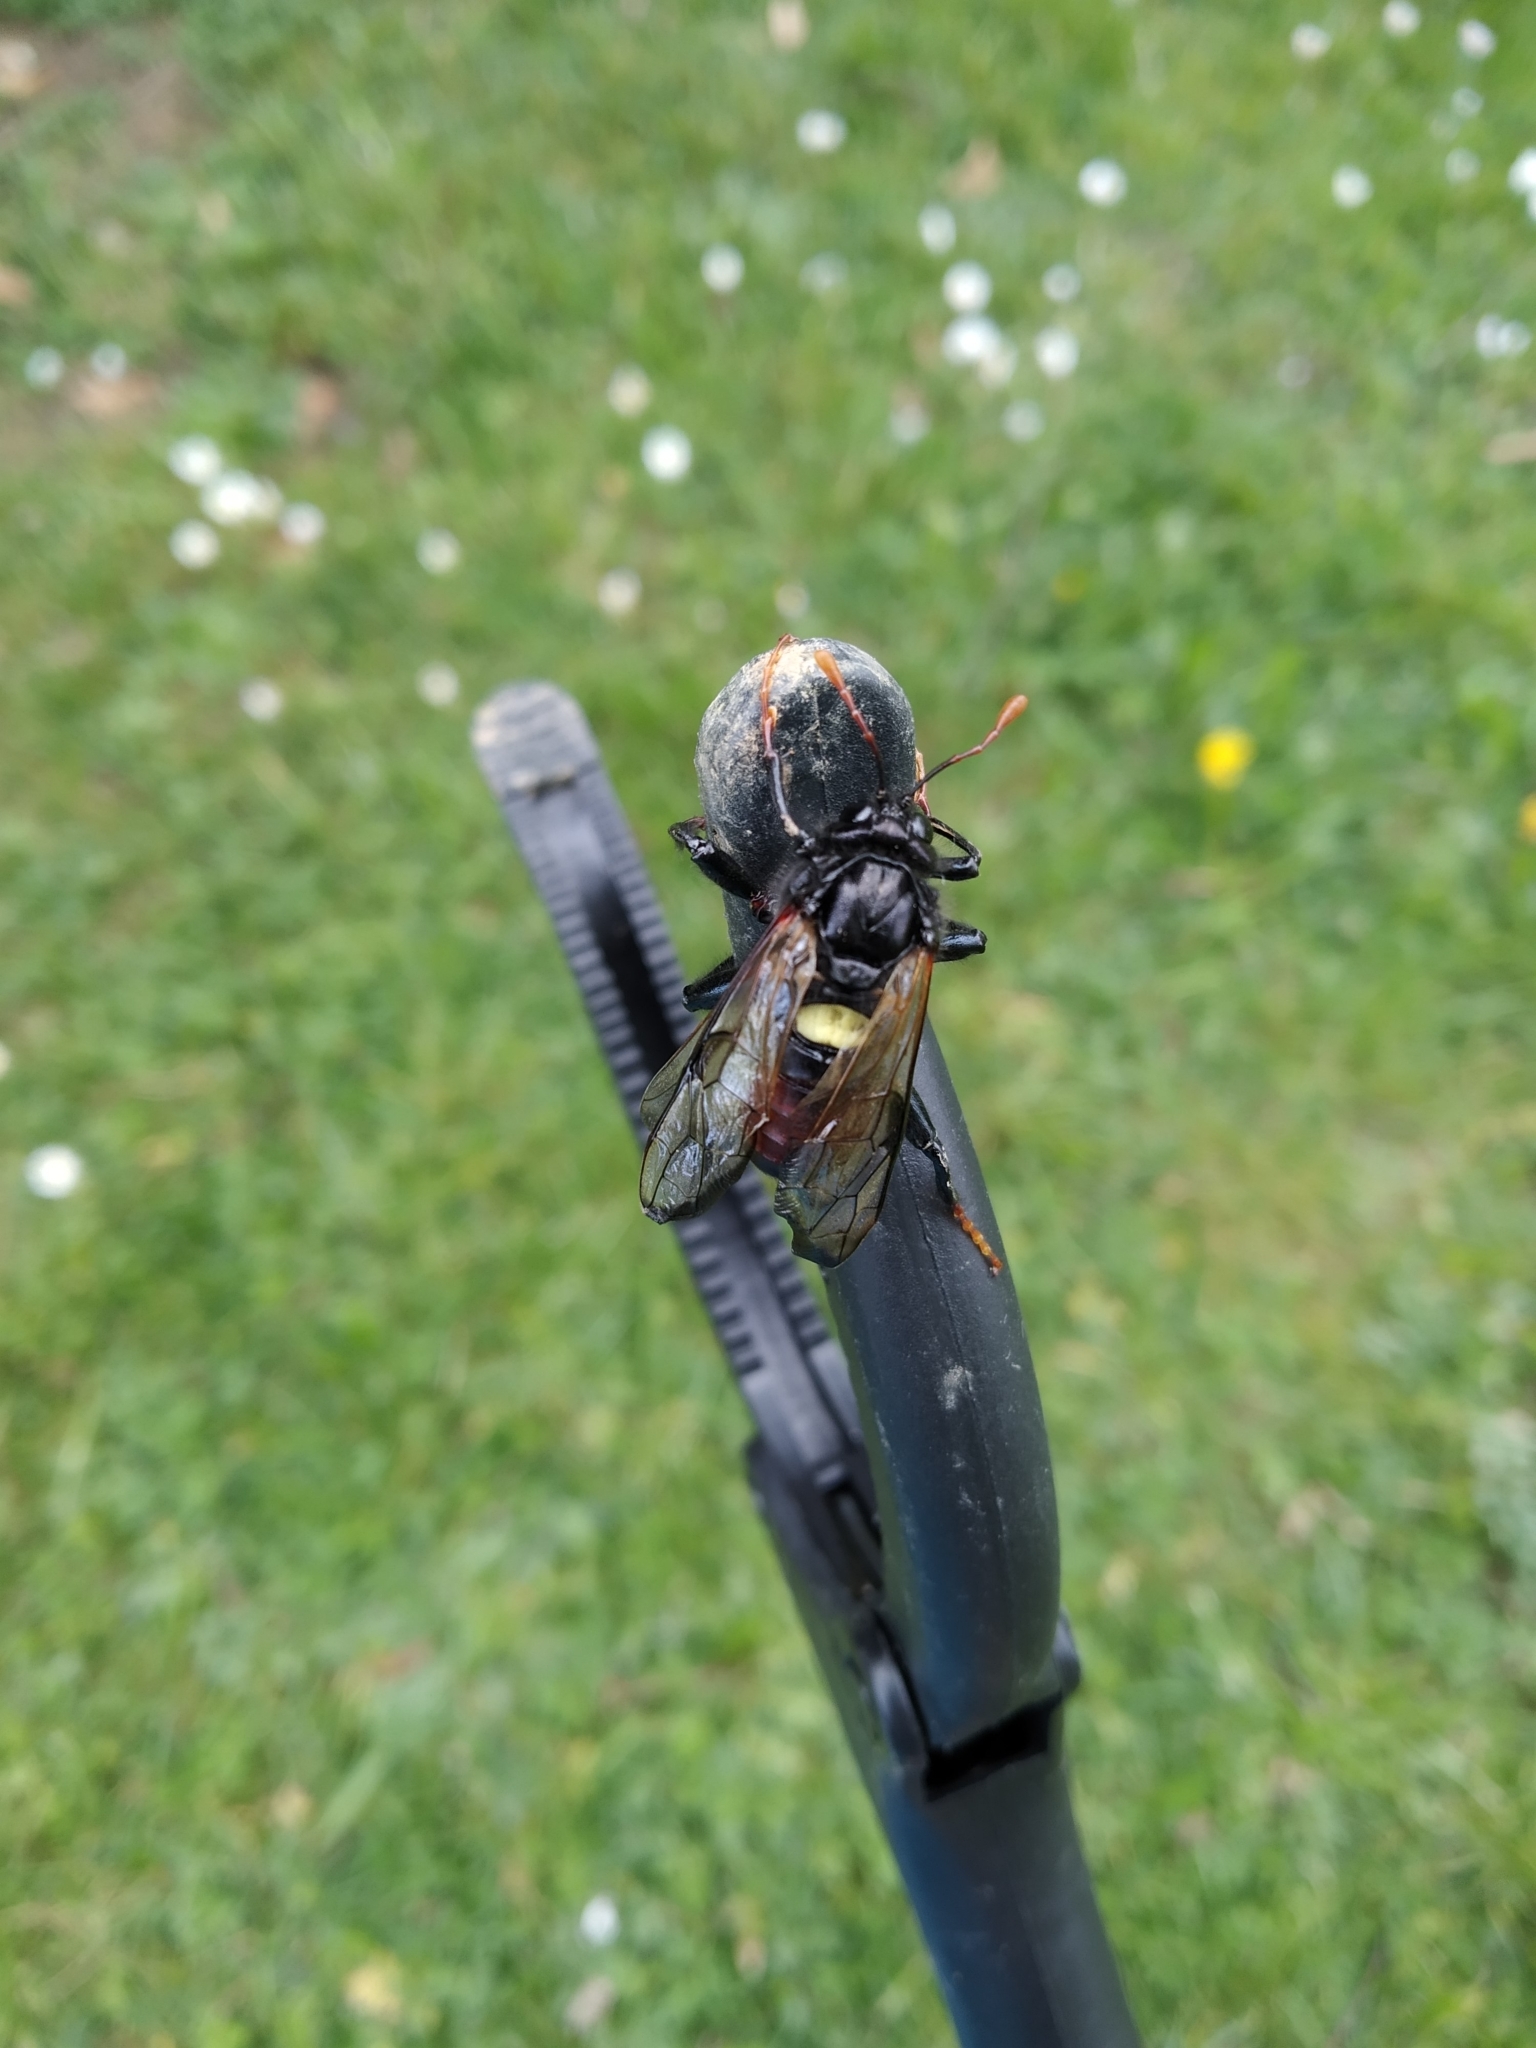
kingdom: Animalia
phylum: Arthropoda
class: Insecta
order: Hymenoptera
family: Cimbicidae
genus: Cimbex
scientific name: Cimbex femoratus
